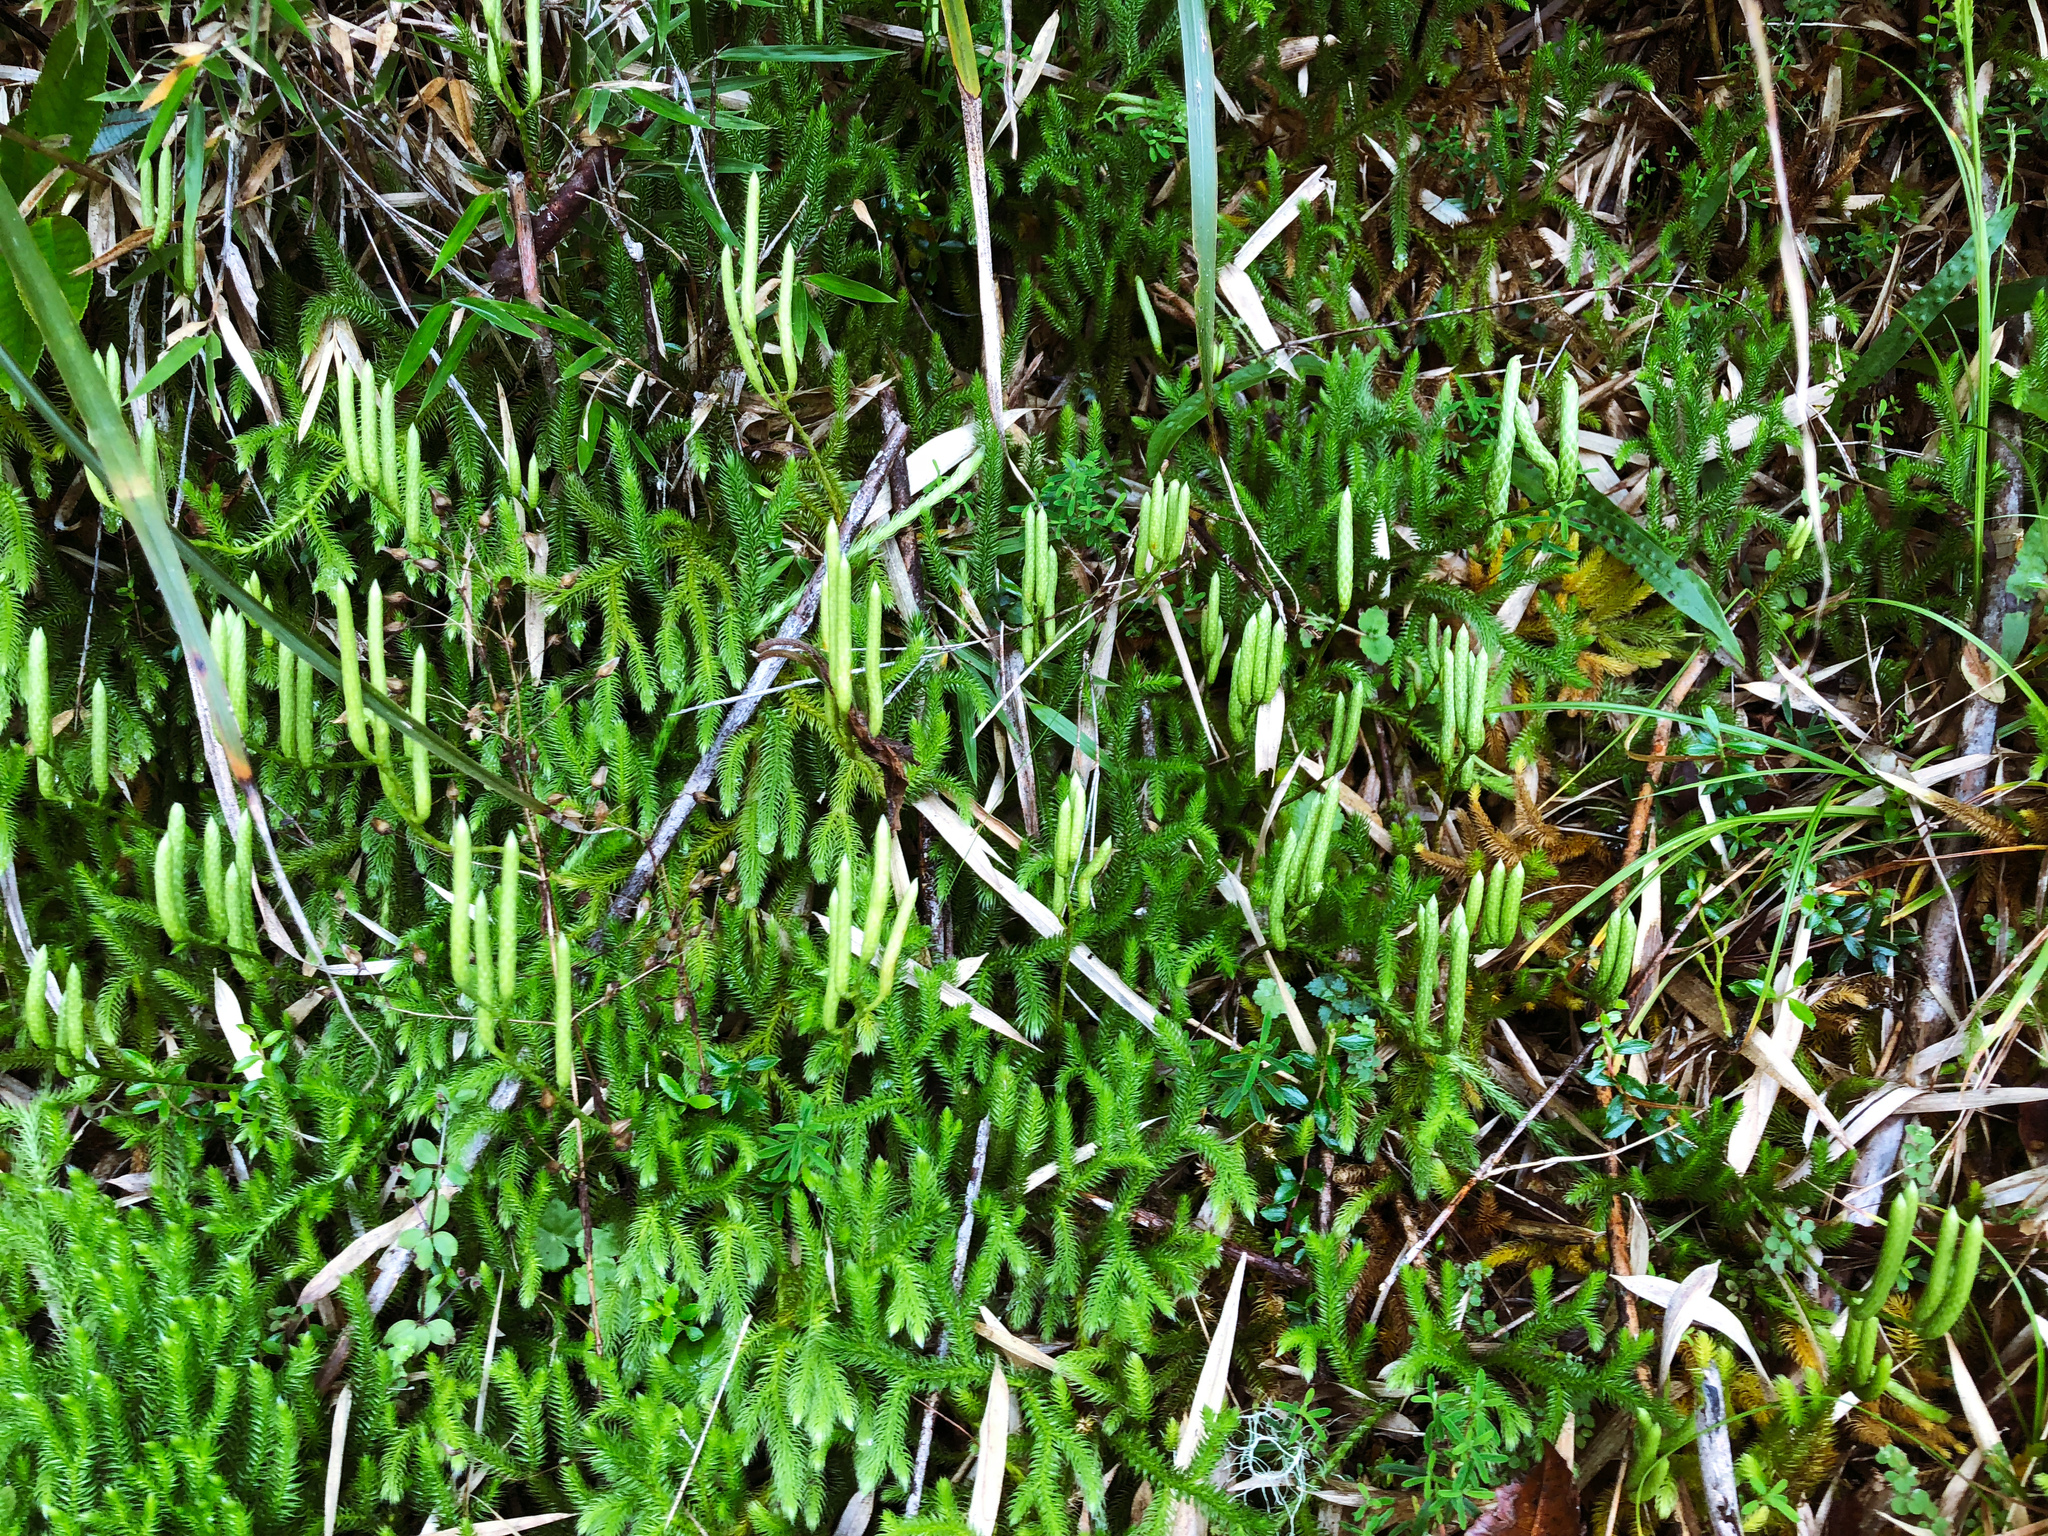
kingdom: Plantae
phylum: Tracheophyta
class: Lycopodiopsida
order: Lycopodiales
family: Lycopodiaceae
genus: Lycopodium
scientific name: Lycopodium clavatum
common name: Stag's-horn clubmoss
